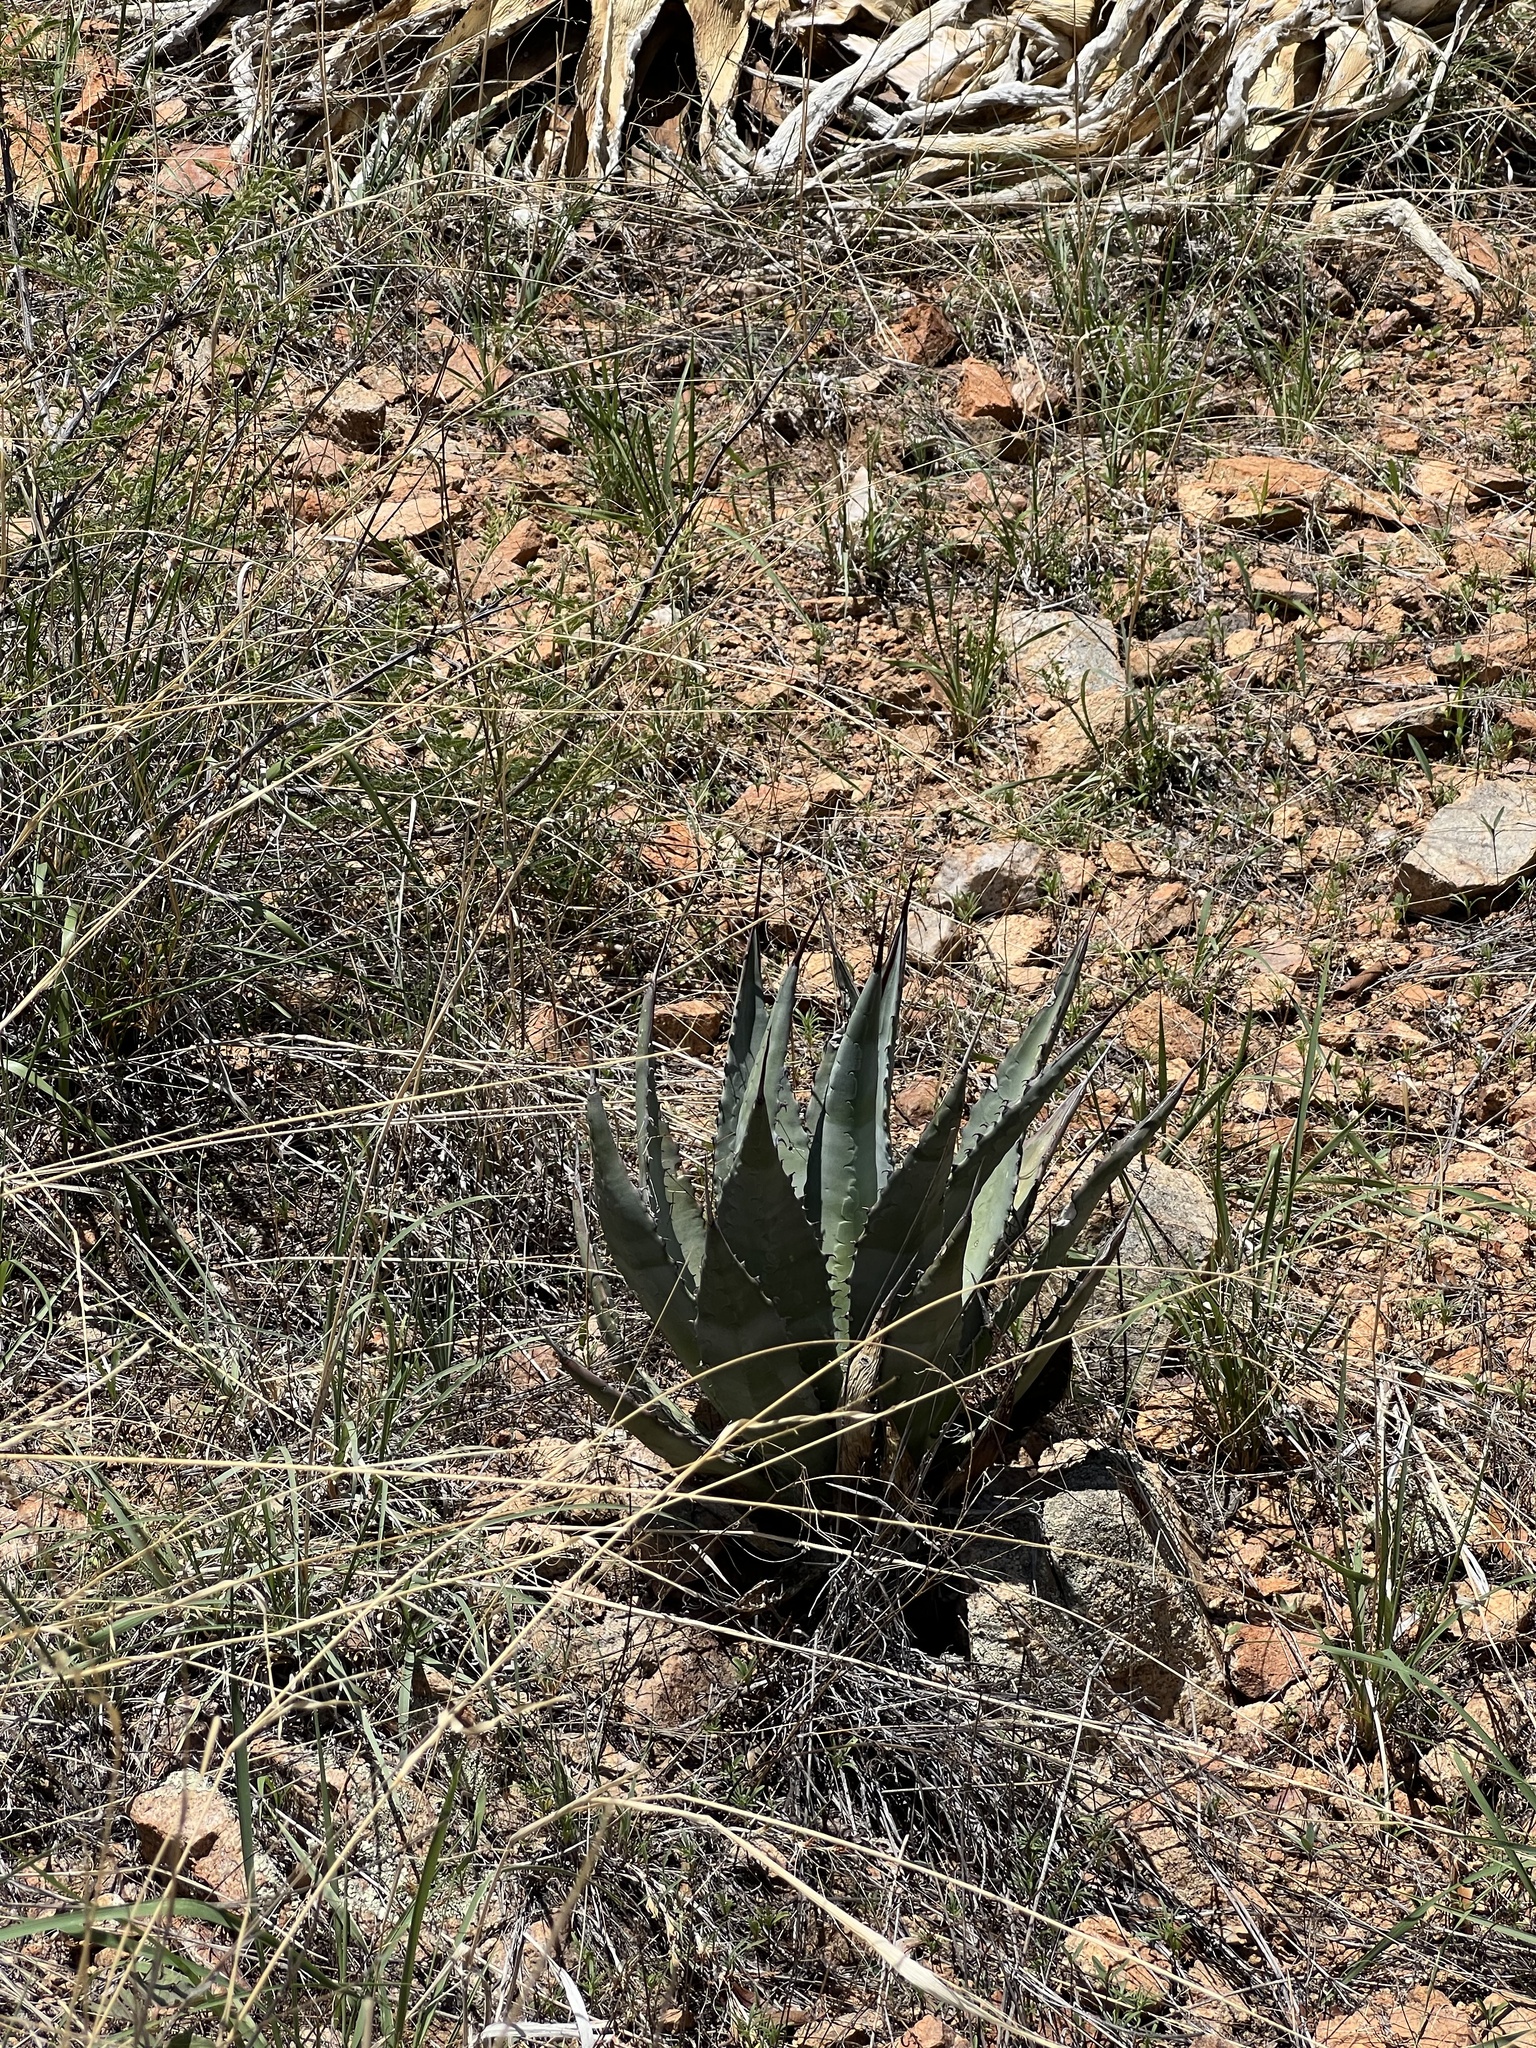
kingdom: Plantae
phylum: Tracheophyta
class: Liliopsida
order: Asparagales
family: Asparagaceae
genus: Agave
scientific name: Agave palmeri
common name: Palmer agave
